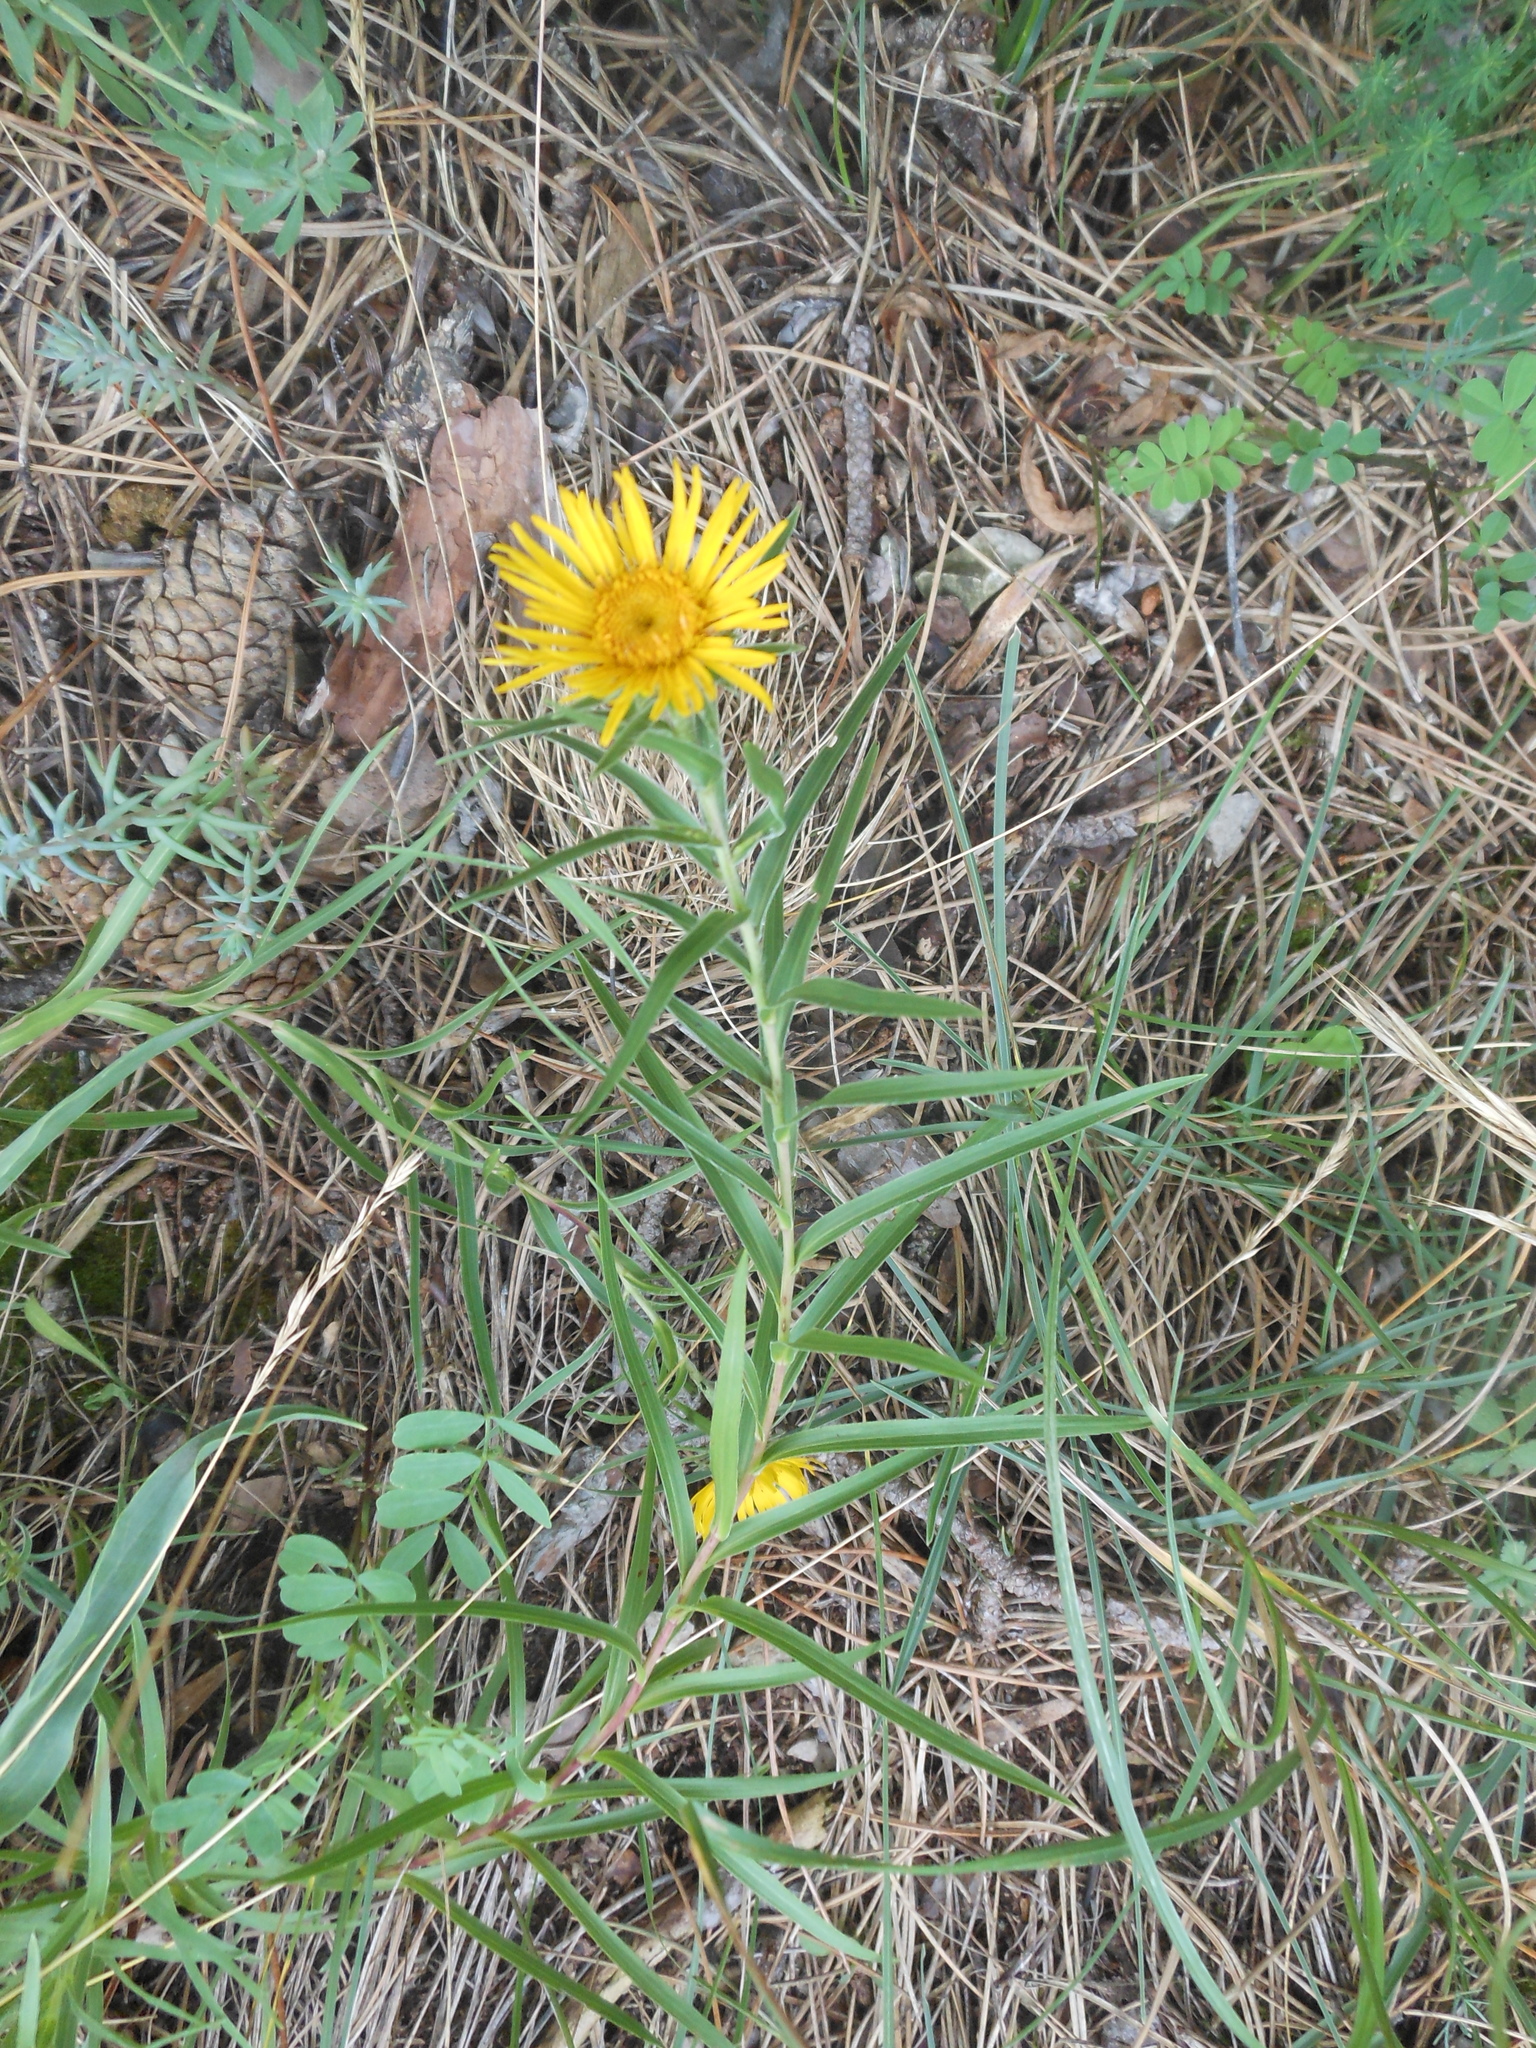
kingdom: Plantae
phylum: Tracheophyta
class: Magnoliopsida
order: Asterales
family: Asteraceae
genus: Pentanema
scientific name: Pentanema ensifolium
